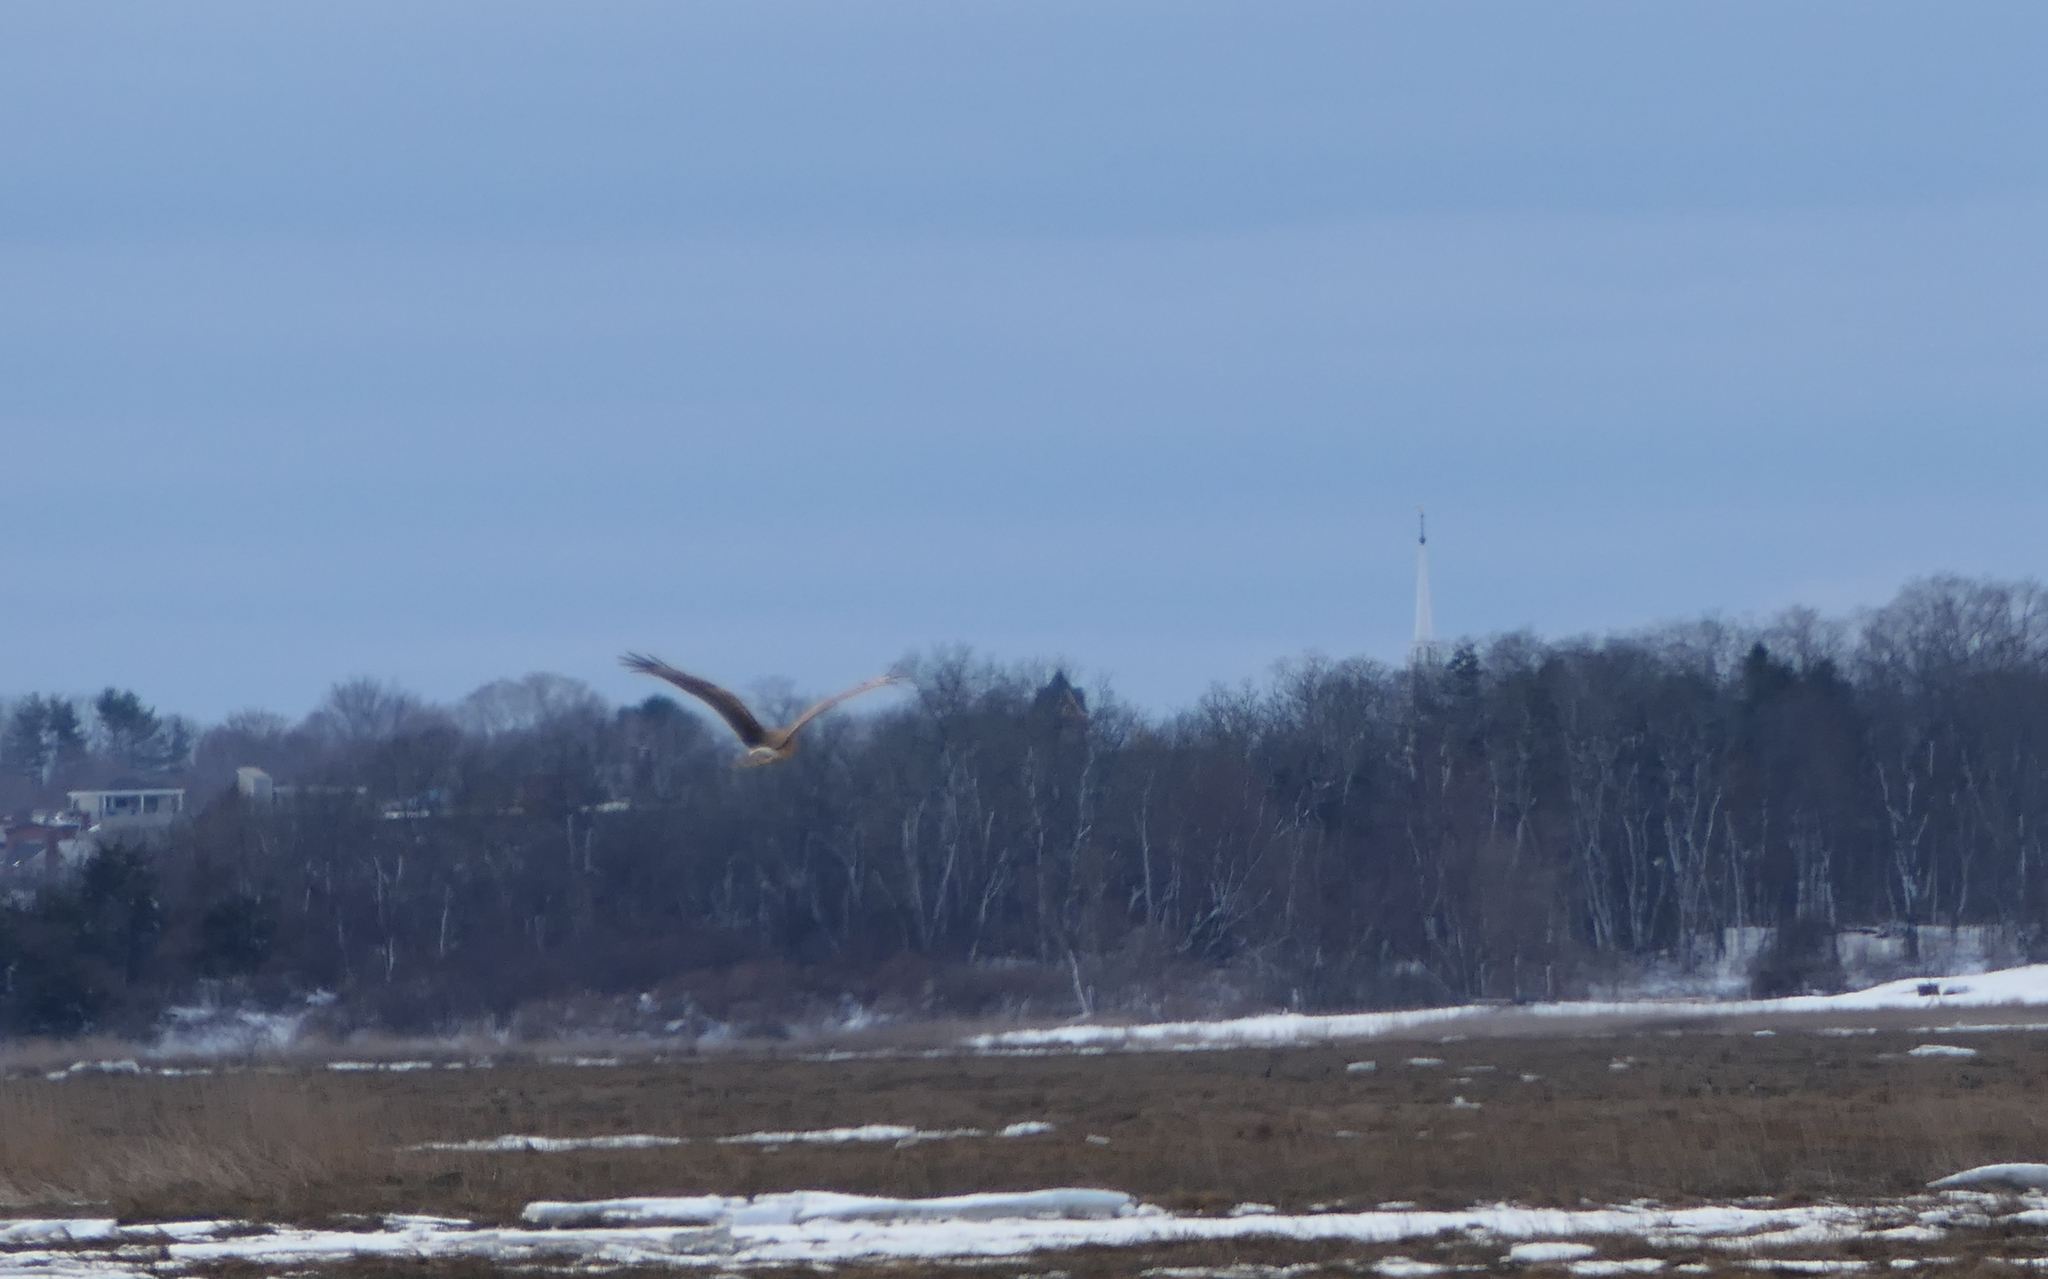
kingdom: Animalia
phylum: Chordata
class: Aves
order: Accipitriformes
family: Accipitridae
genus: Circus
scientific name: Circus cyaneus
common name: Hen harrier
